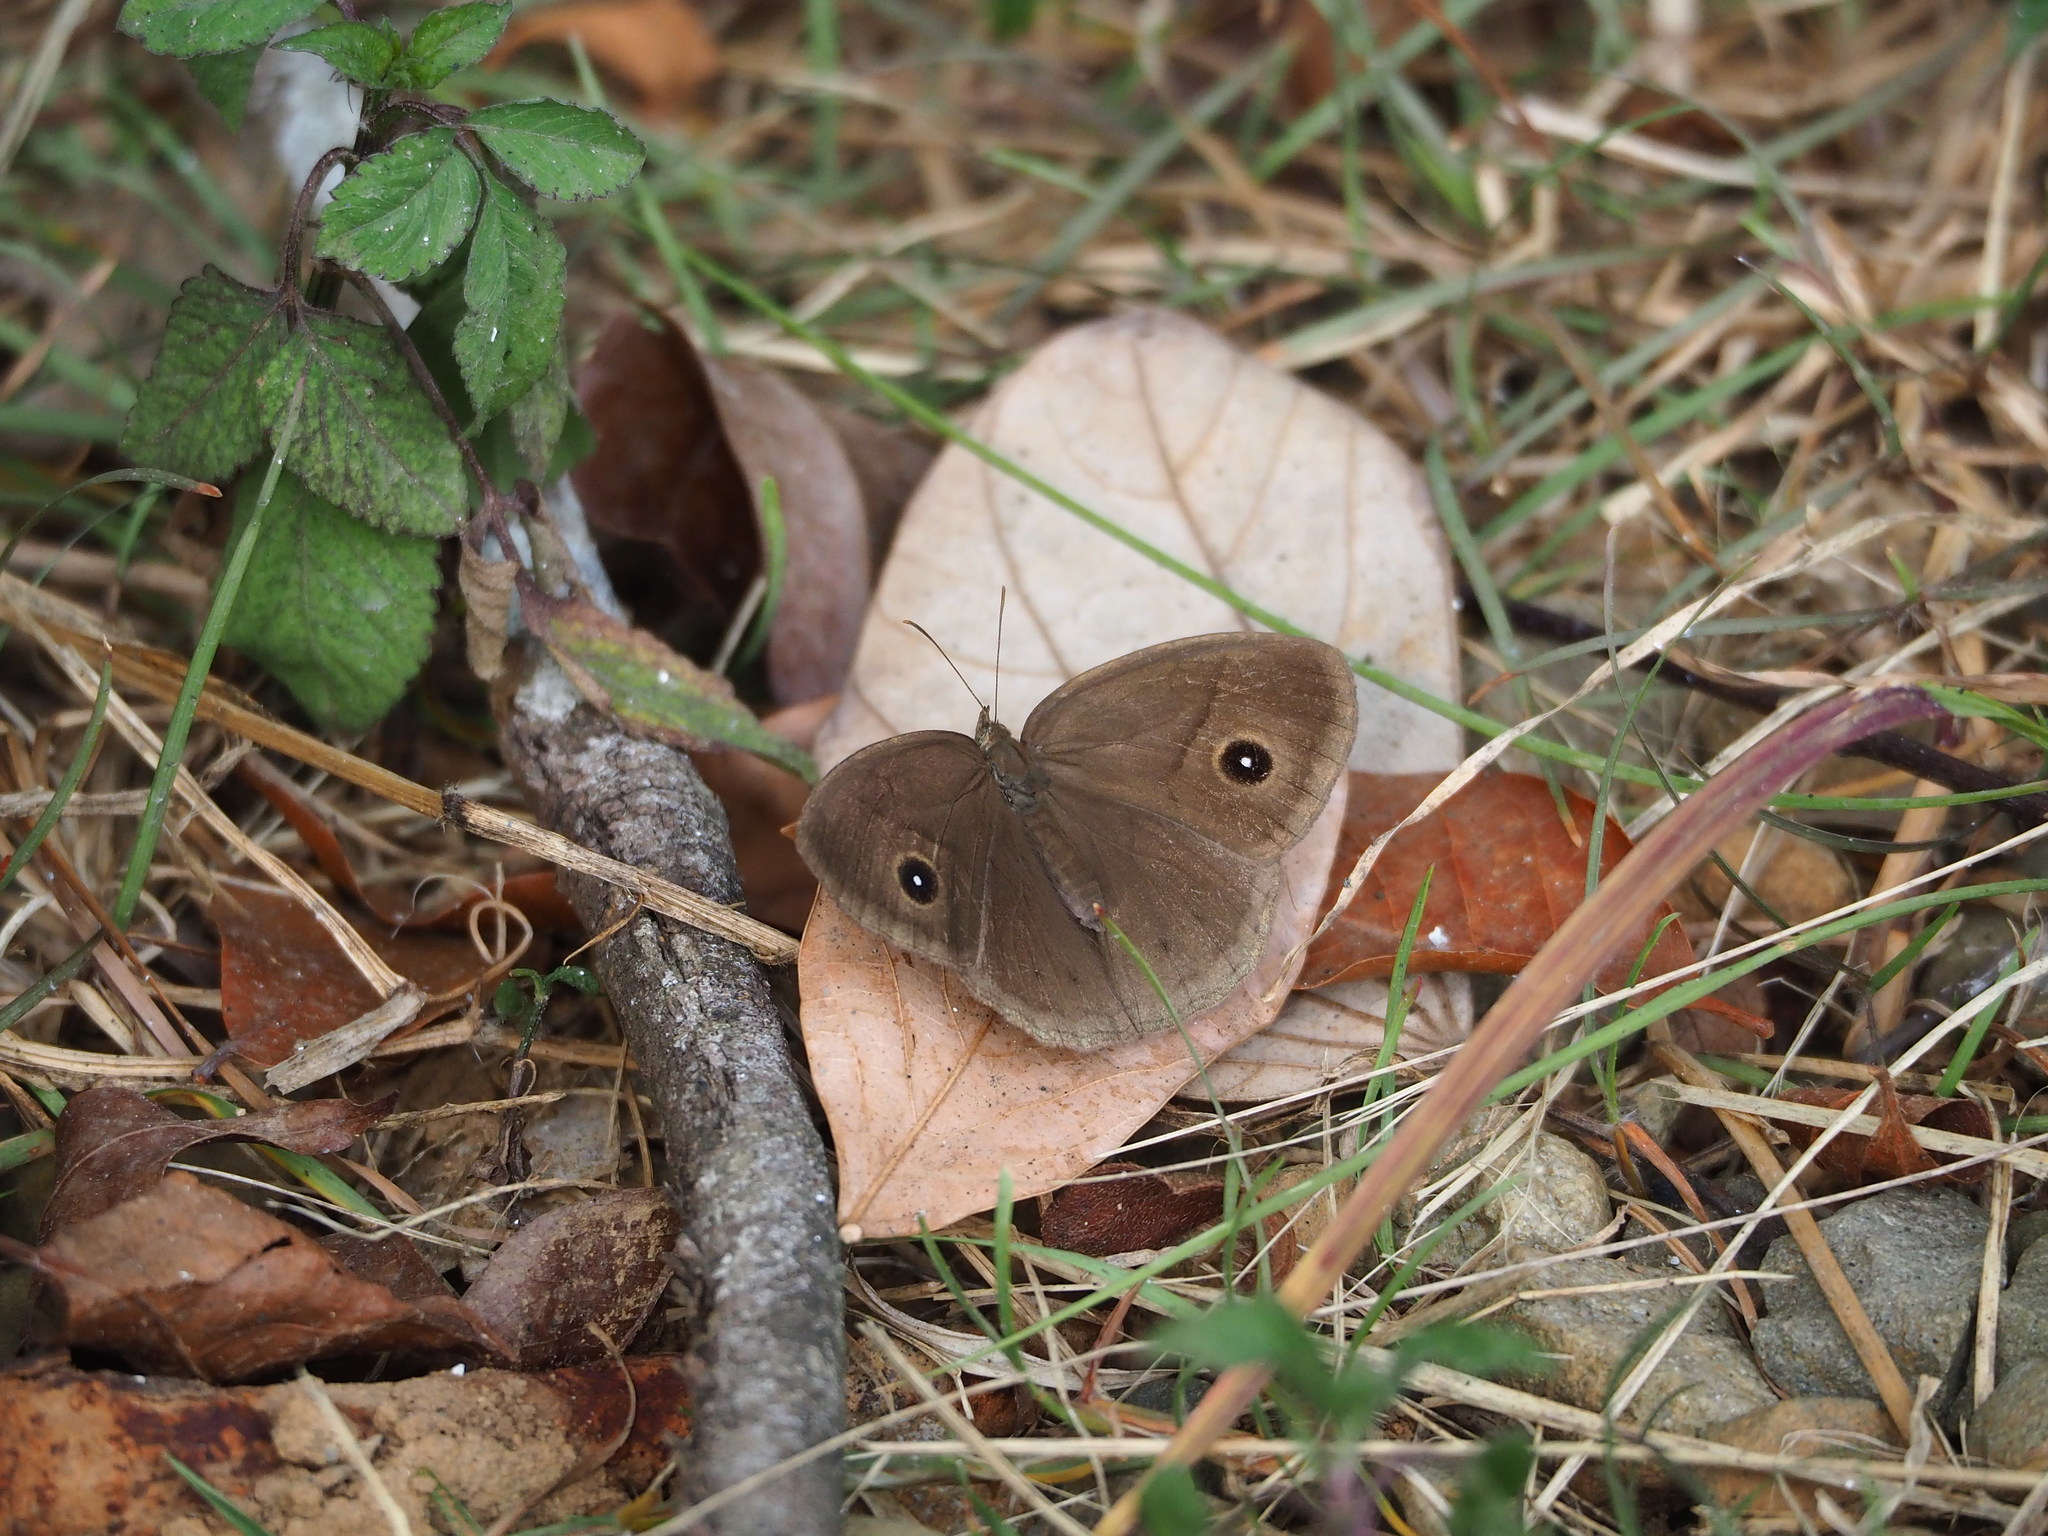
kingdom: Animalia
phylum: Arthropoda
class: Insecta
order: Lepidoptera
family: Nymphalidae
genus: Mycalesis
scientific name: Mycalesis horsfieldii
